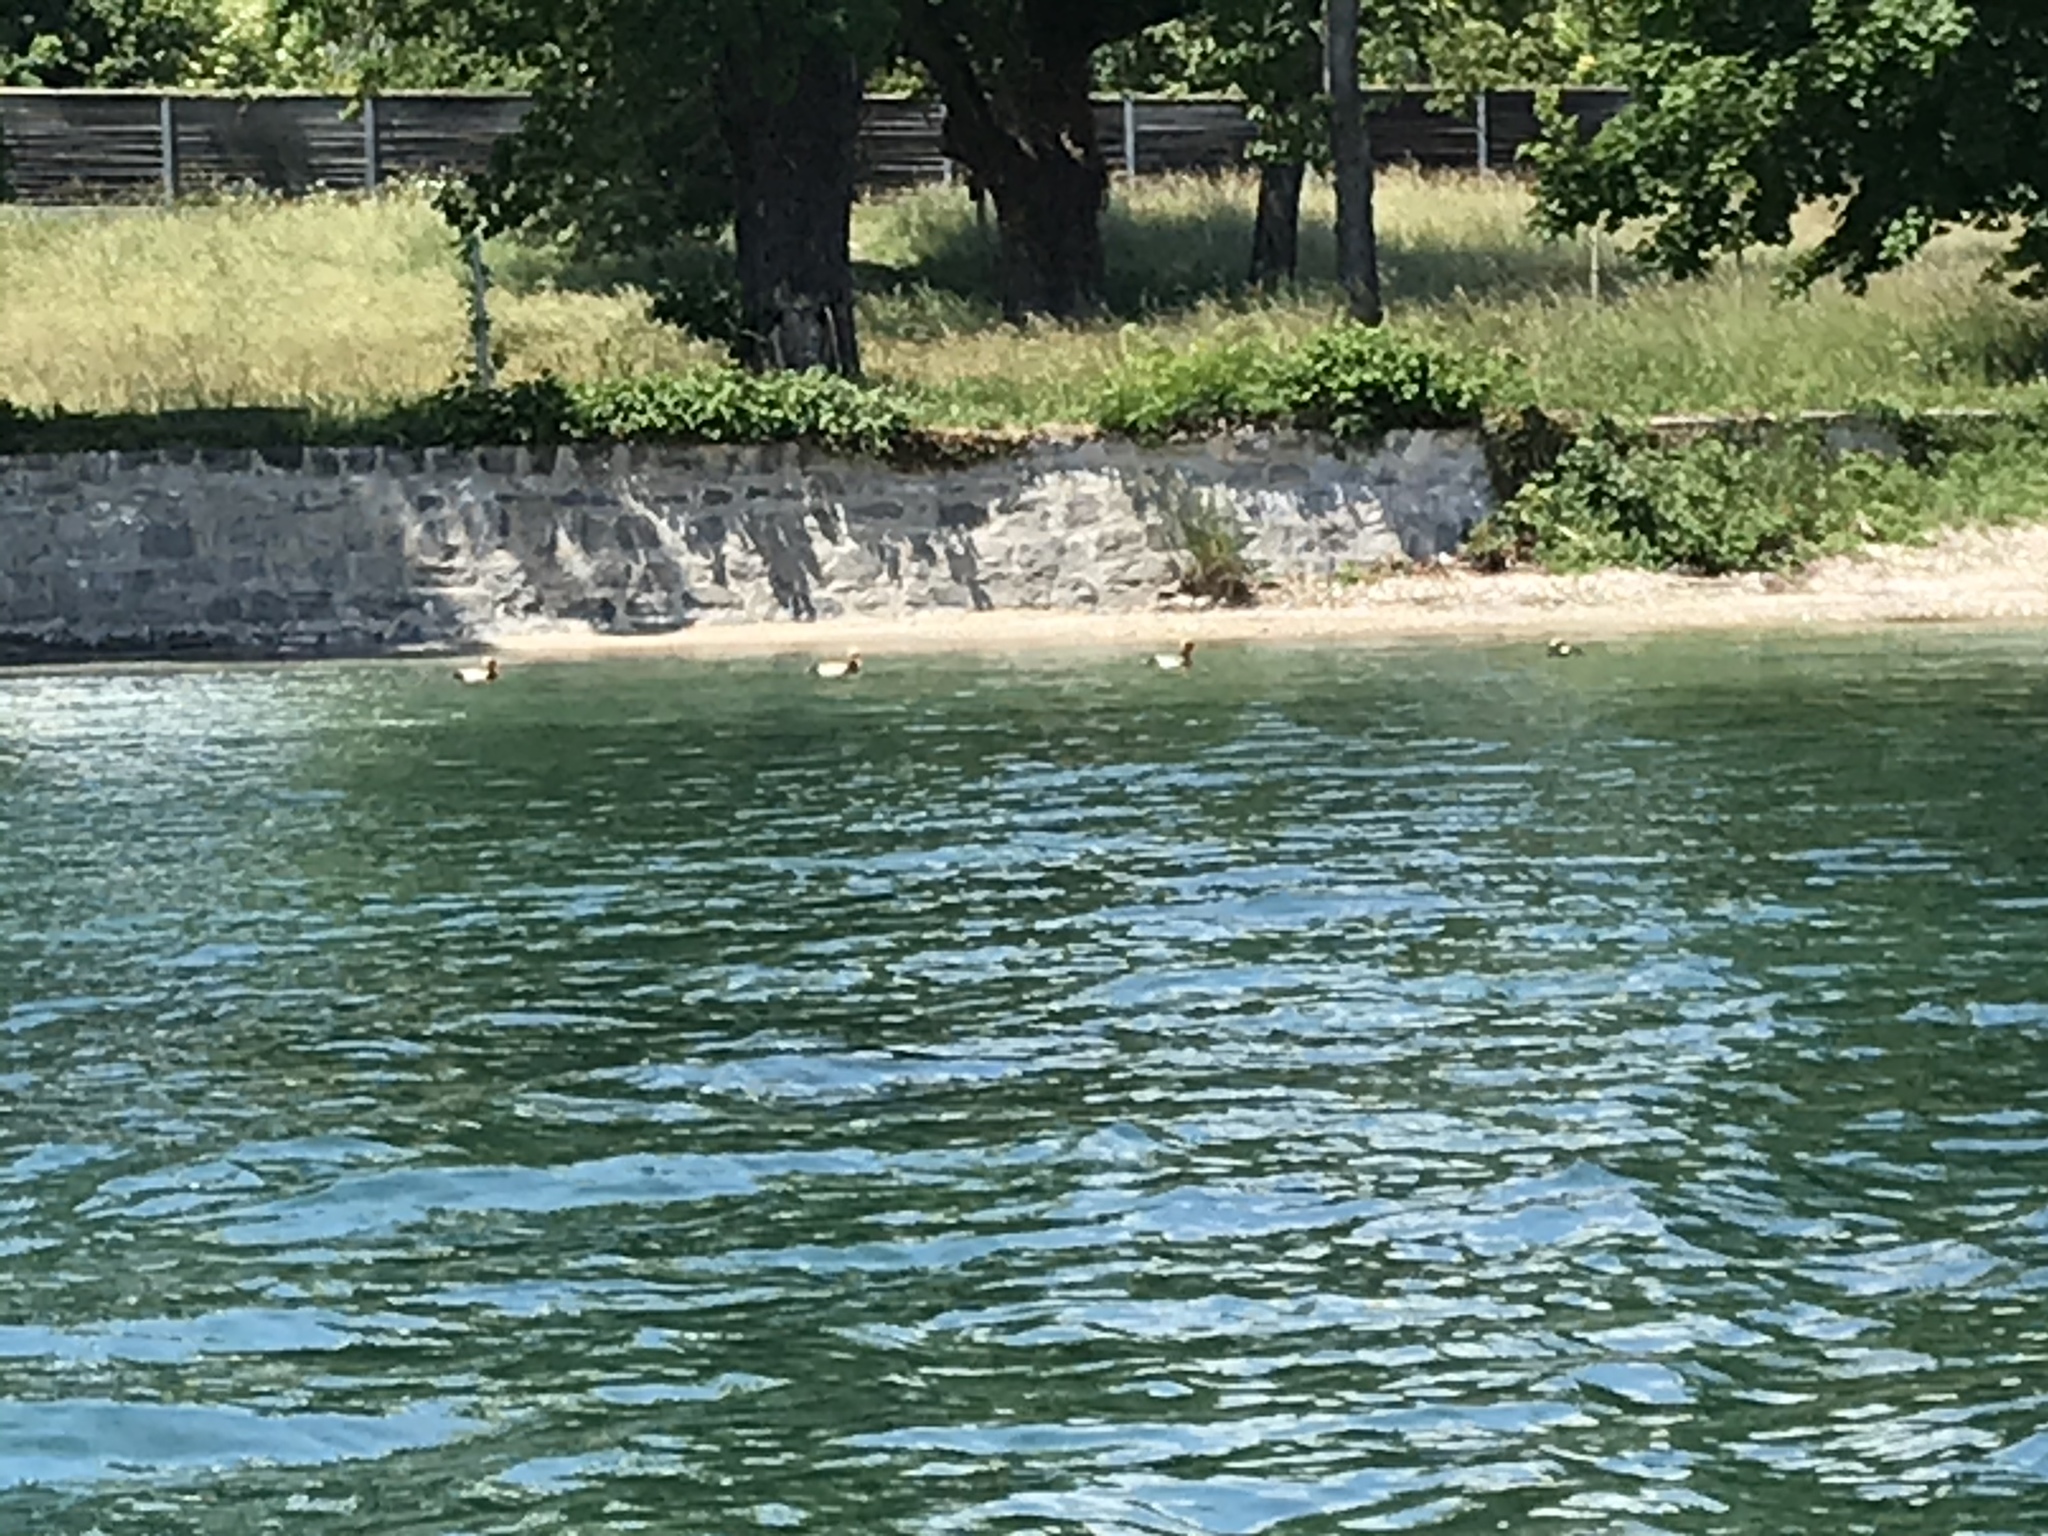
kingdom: Animalia
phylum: Chordata
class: Aves
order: Anseriformes
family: Anatidae
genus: Netta
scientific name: Netta rufina
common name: Red-crested pochard
